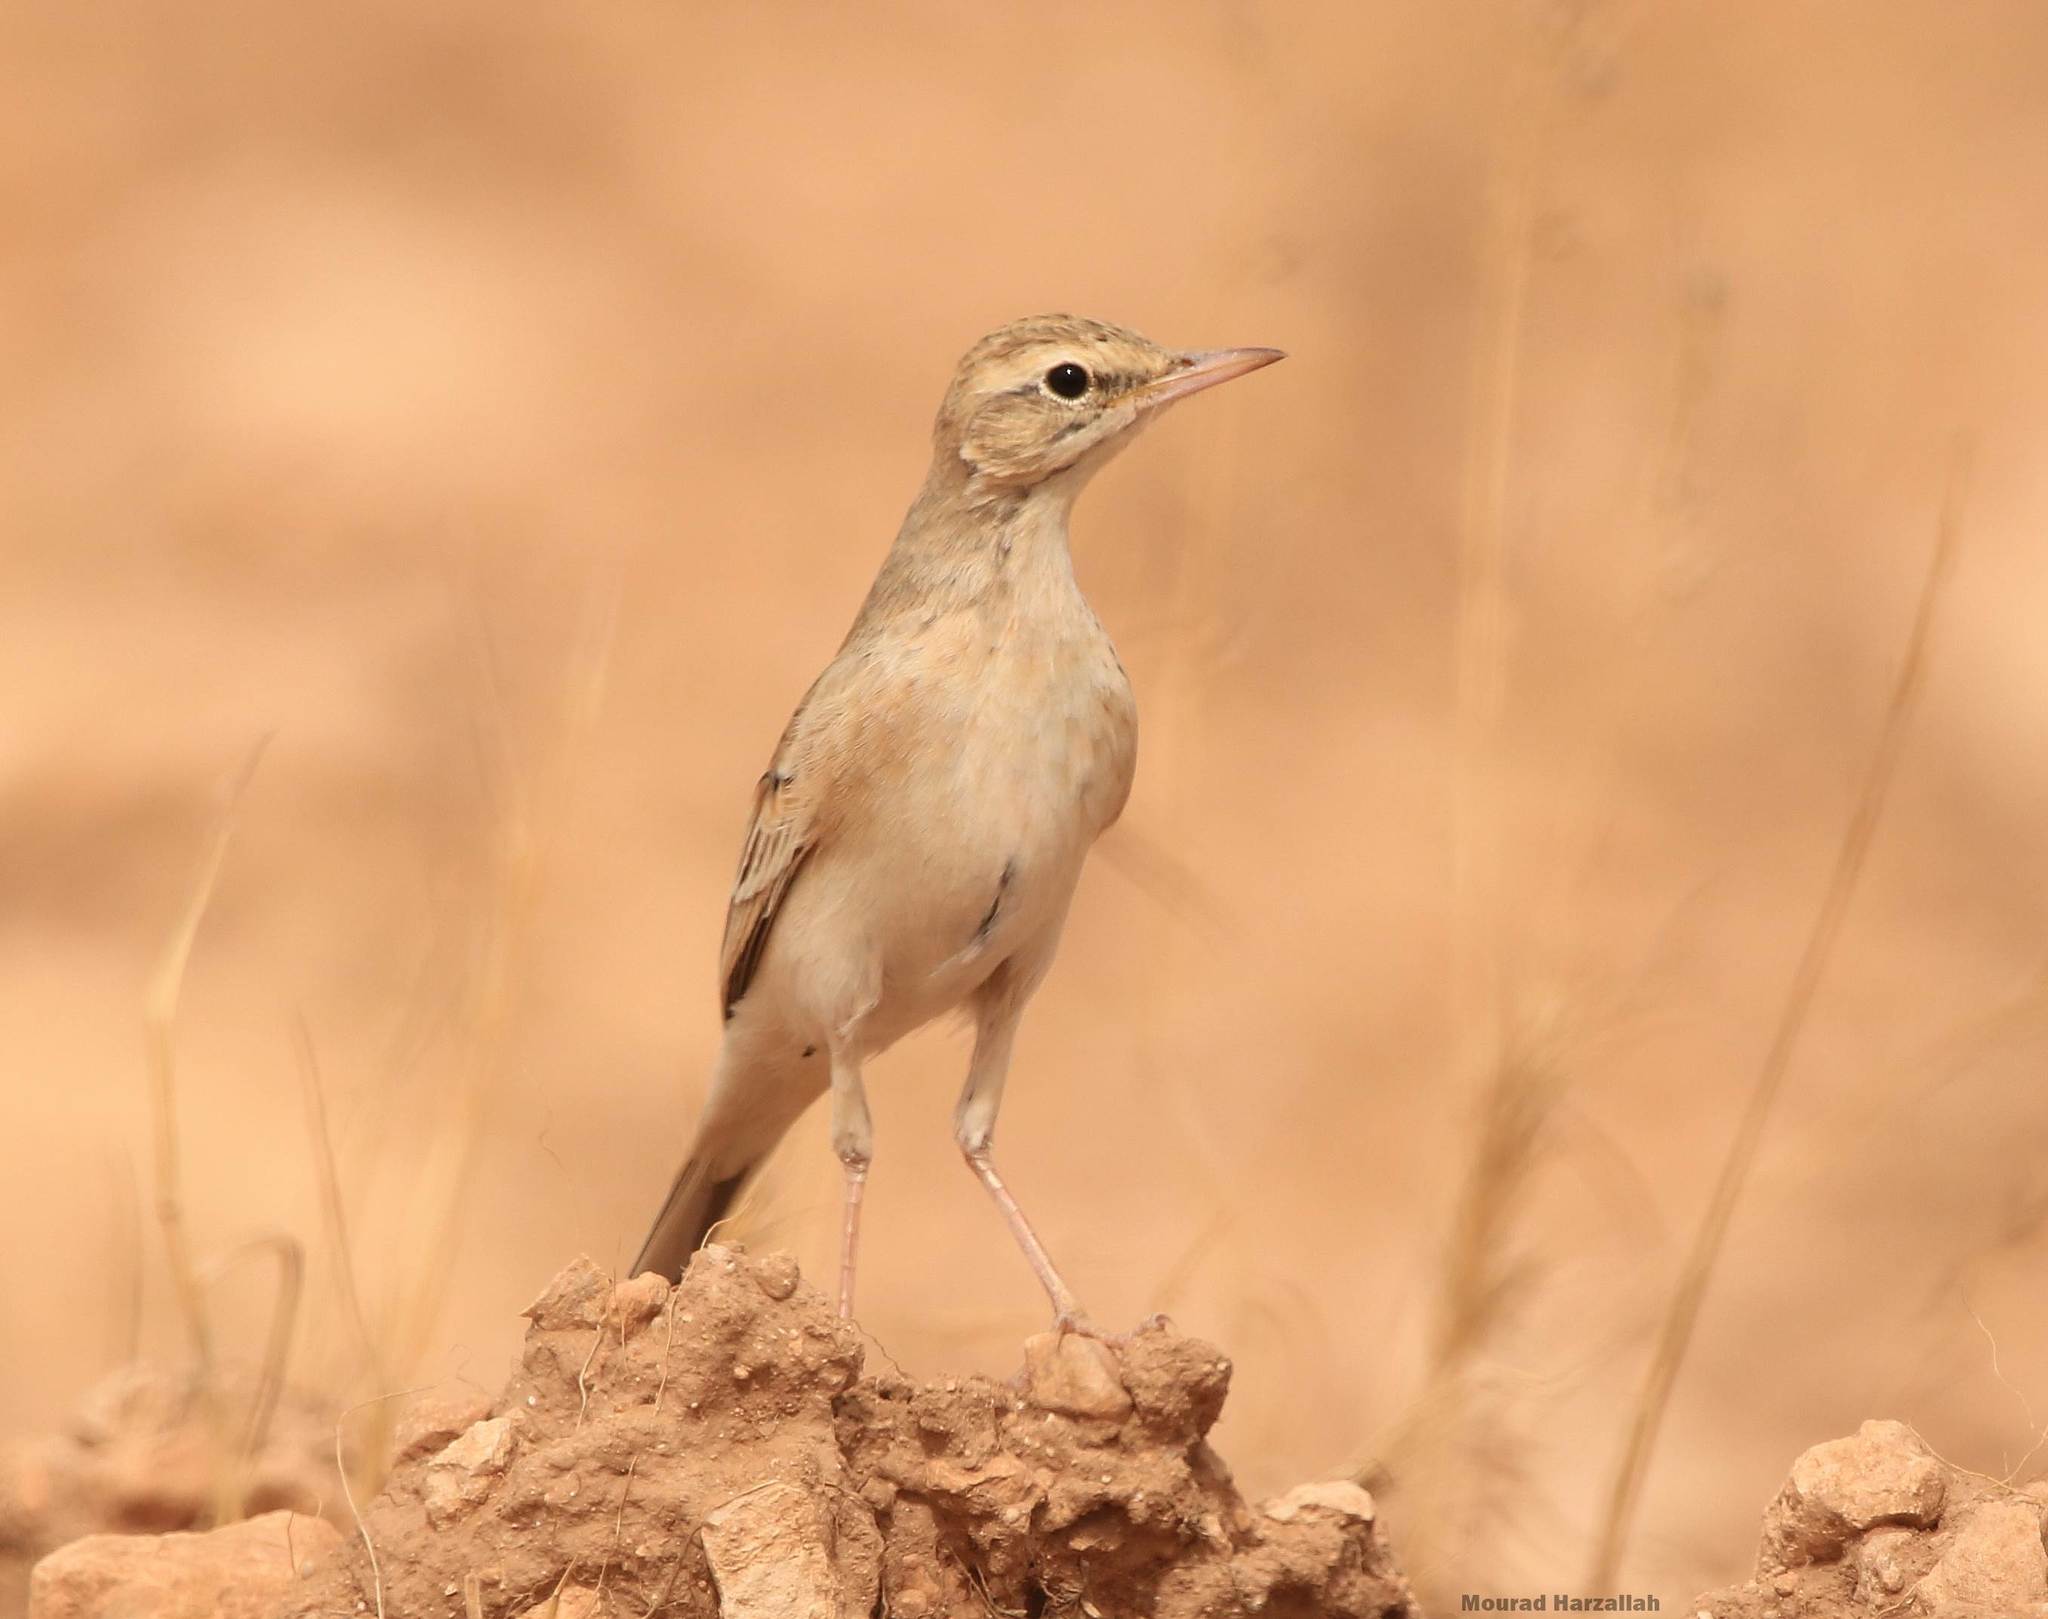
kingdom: Animalia
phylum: Chordata
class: Aves
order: Passeriformes
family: Motacillidae
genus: Anthus
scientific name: Anthus campestris
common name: Tawny pipit
